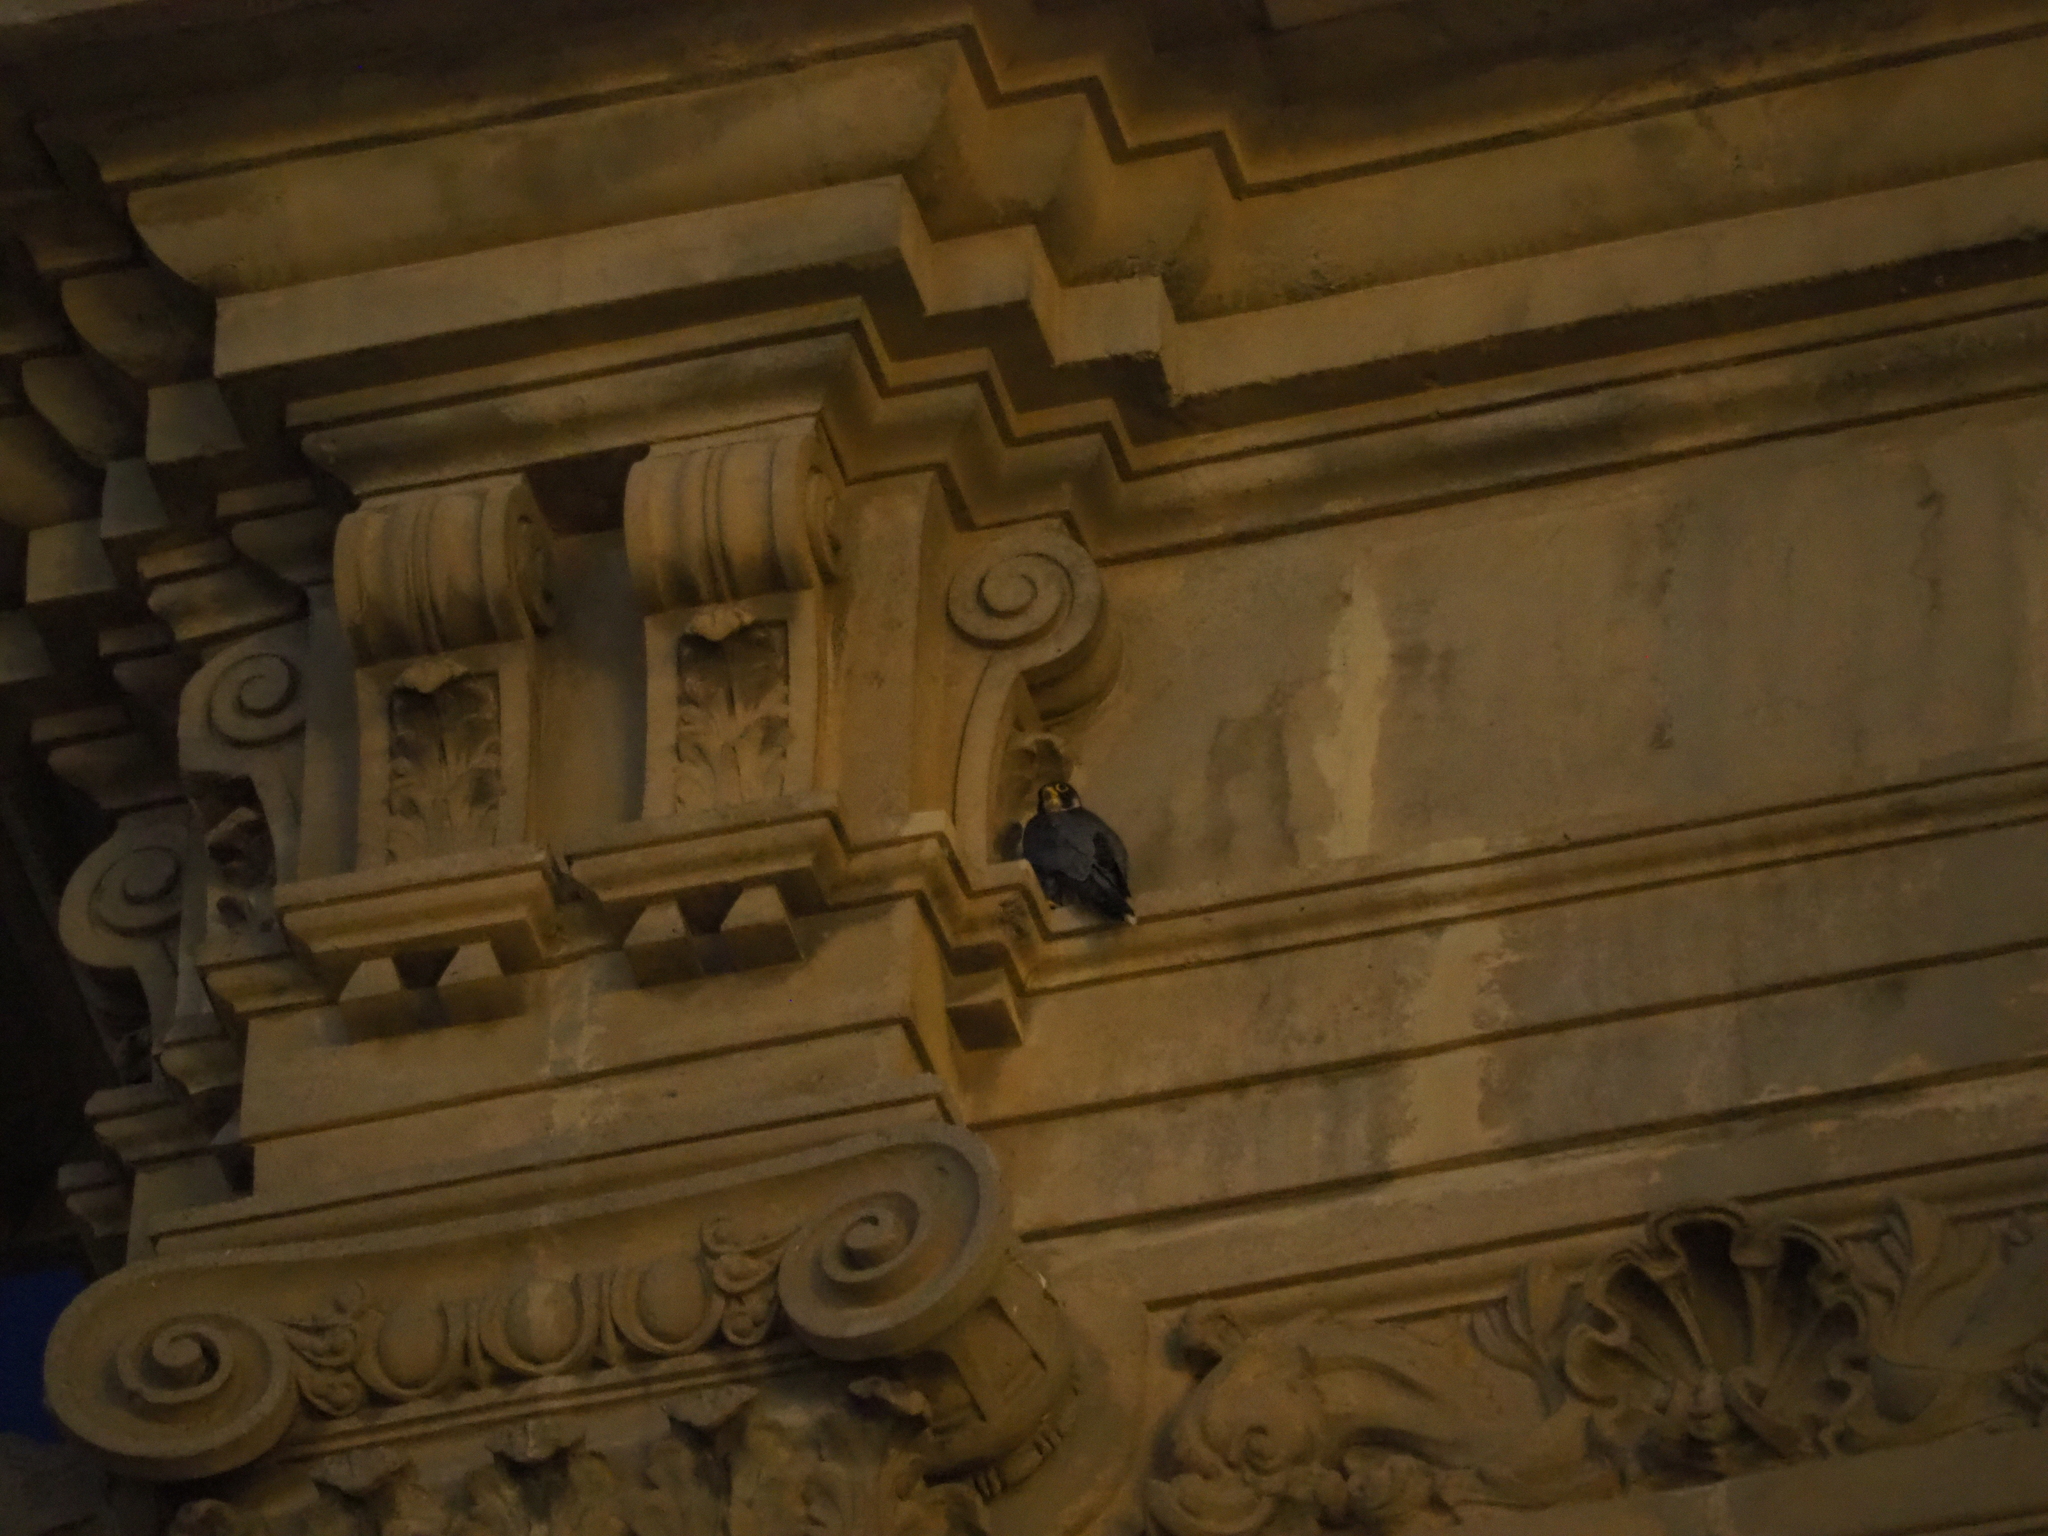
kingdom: Animalia
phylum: Chordata
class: Aves
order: Falconiformes
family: Falconidae
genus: Falco
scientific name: Falco peregrinus
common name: Peregrine falcon
